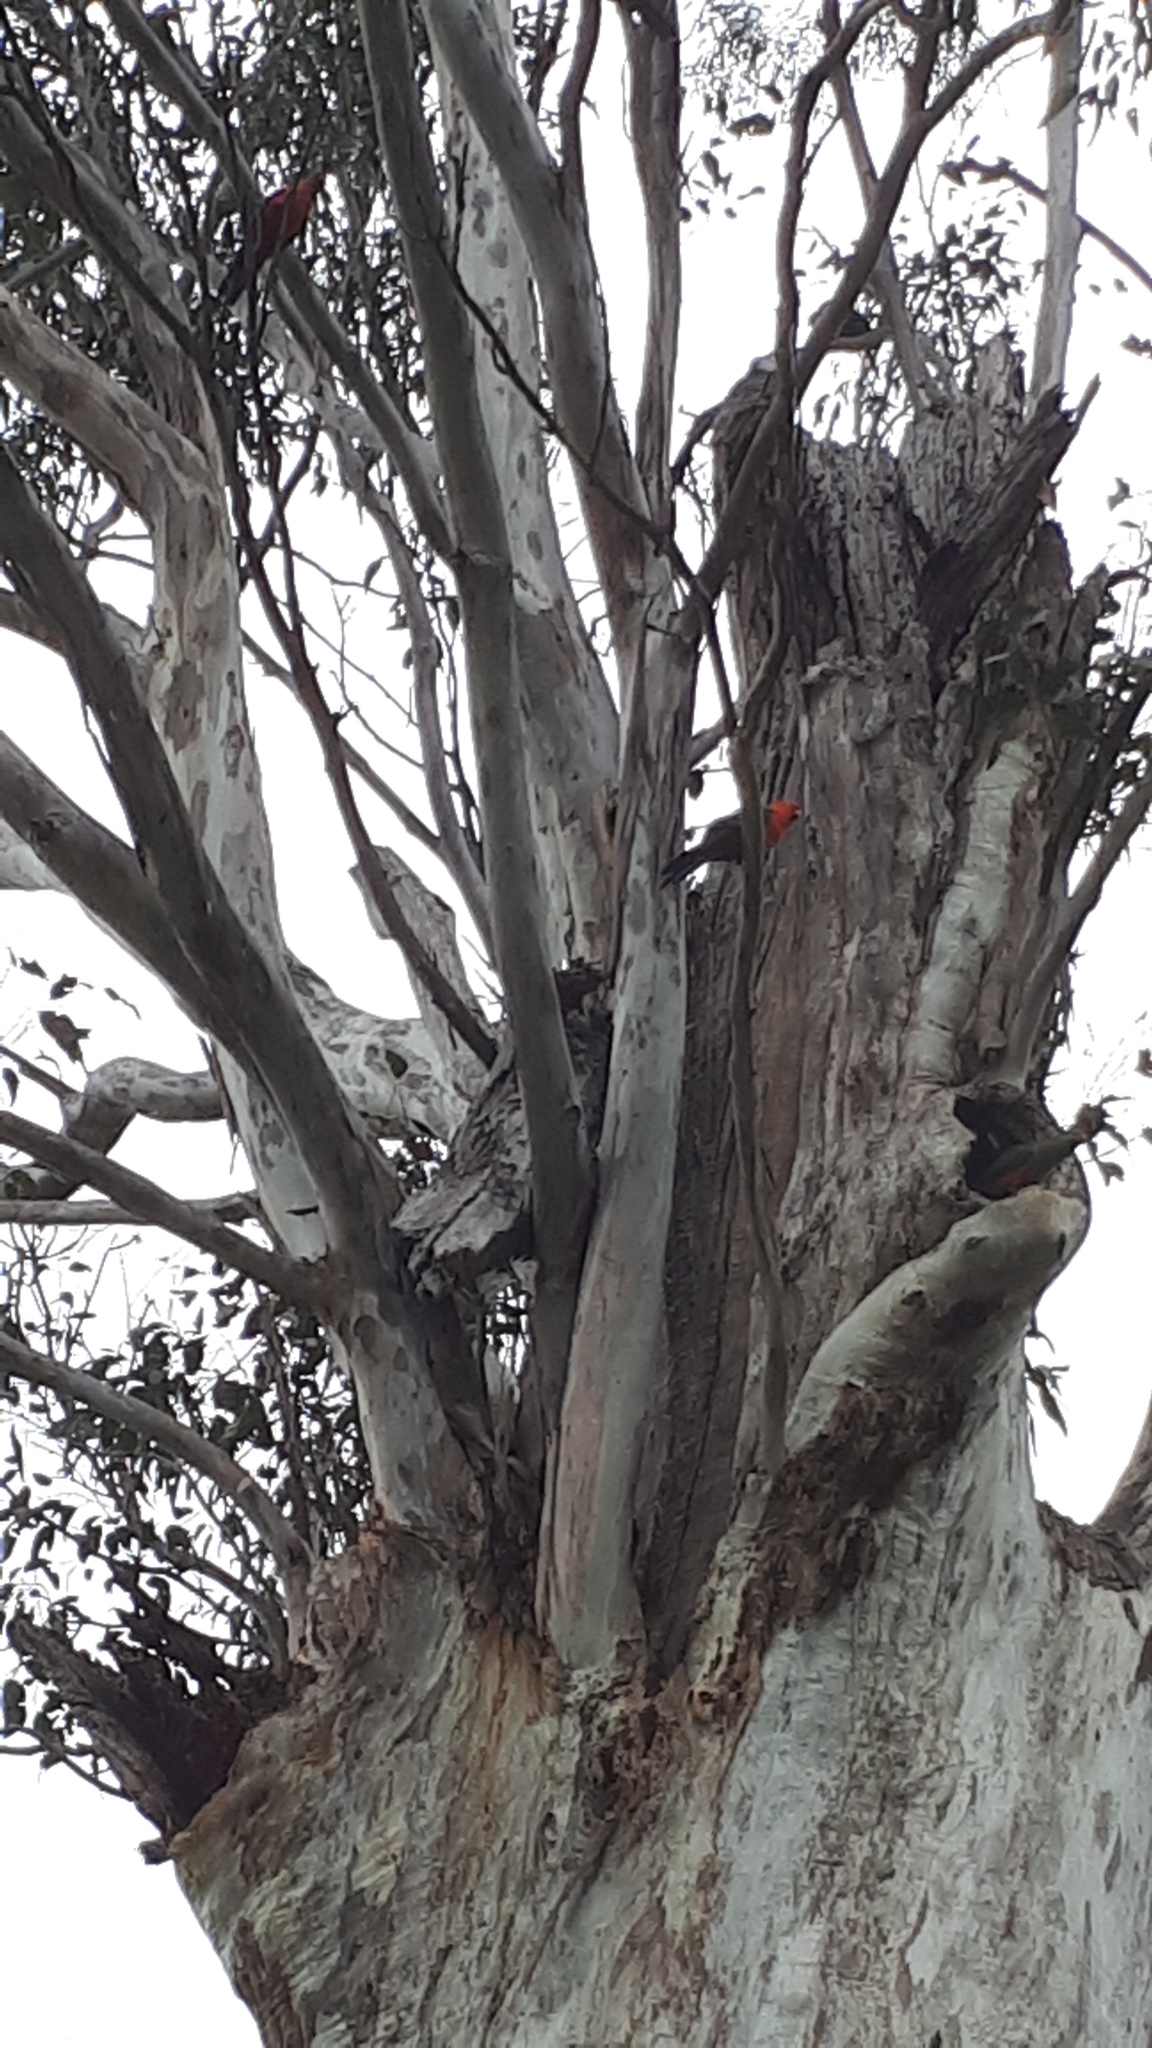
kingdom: Animalia
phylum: Chordata
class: Aves
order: Psittaciformes
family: Psittacidae
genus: Alisterus
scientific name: Alisterus scapularis
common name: Australian king parrot
